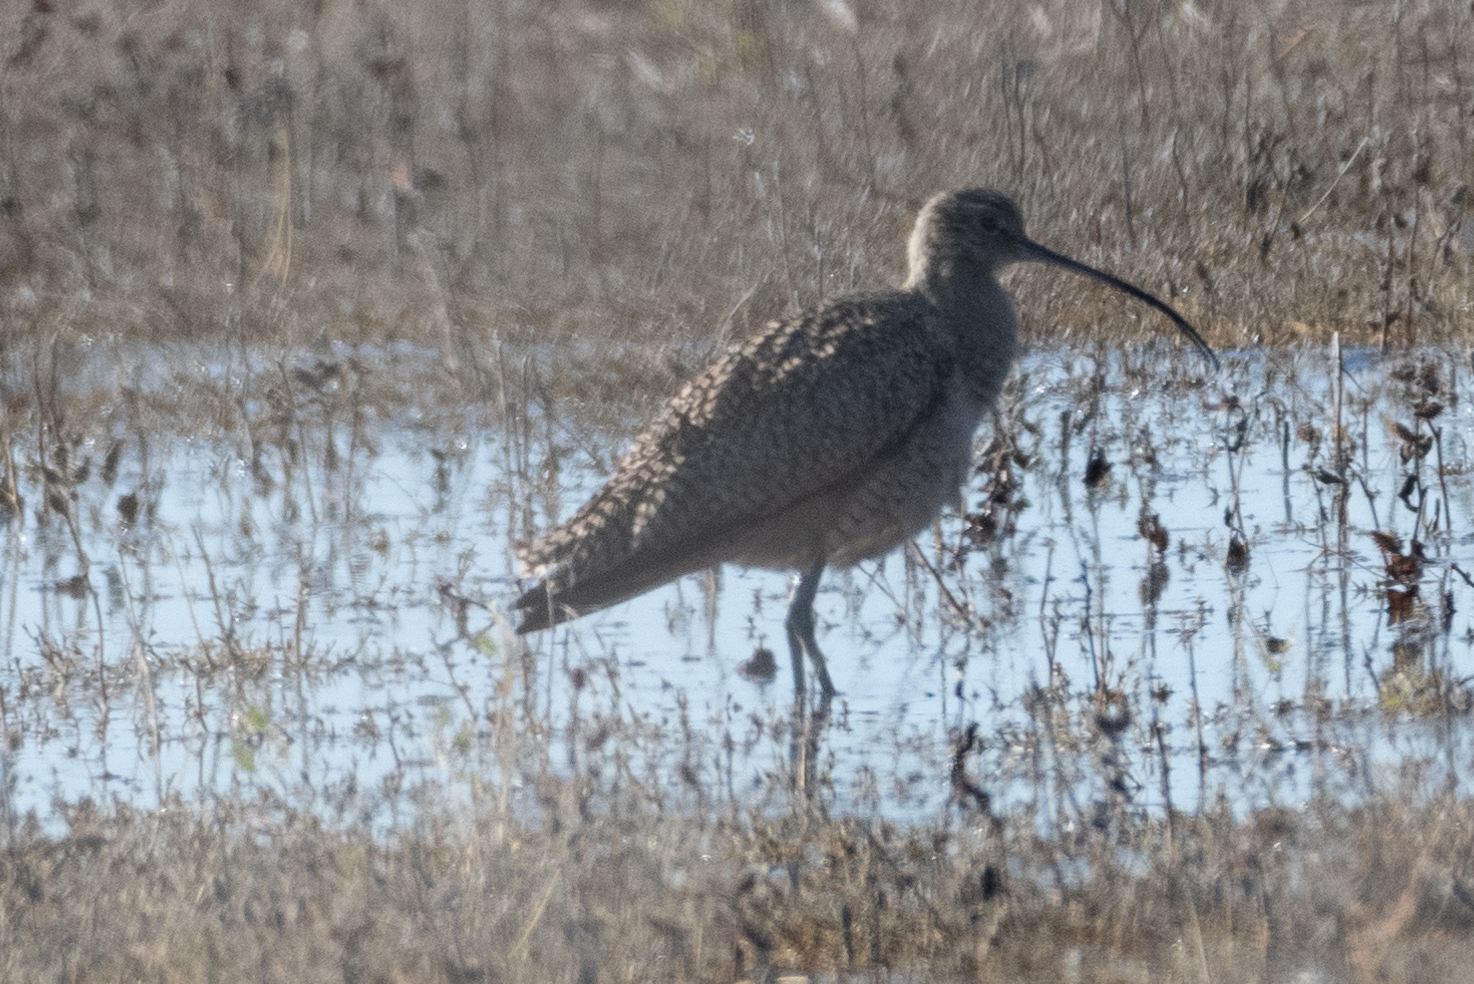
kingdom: Animalia
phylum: Chordata
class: Aves
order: Charadriiformes
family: Scolopacidae
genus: Numenius
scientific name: Numenius americanus
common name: Long-billed curlew
